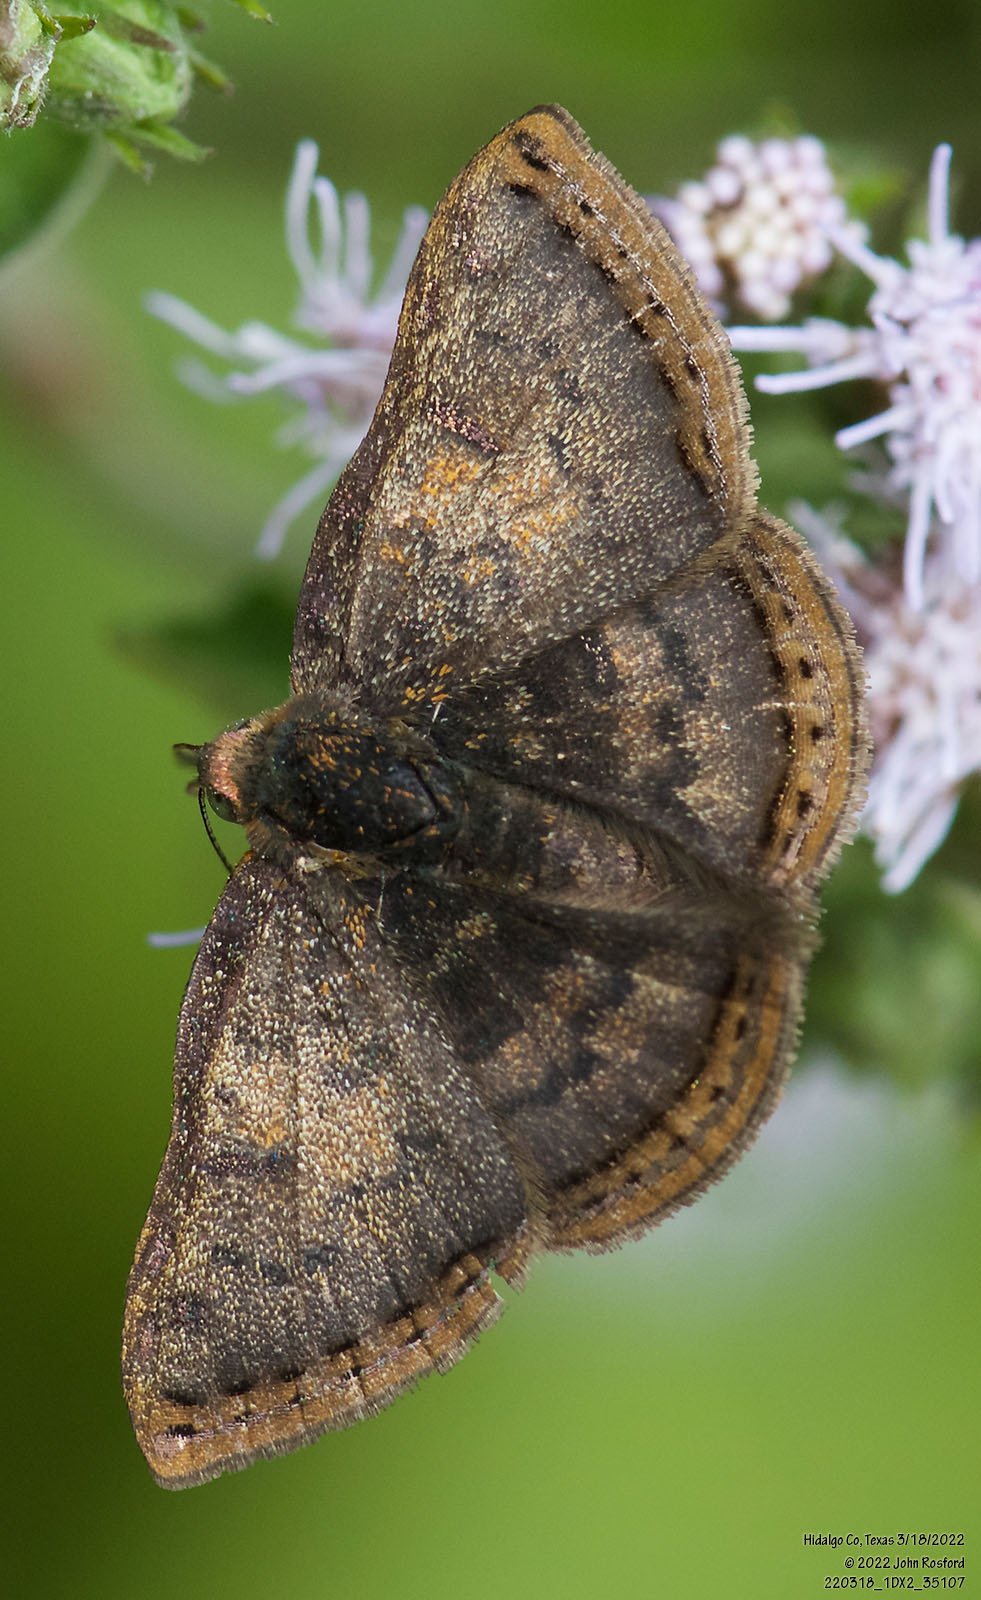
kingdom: Animalia
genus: Caria
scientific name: Caria ino
